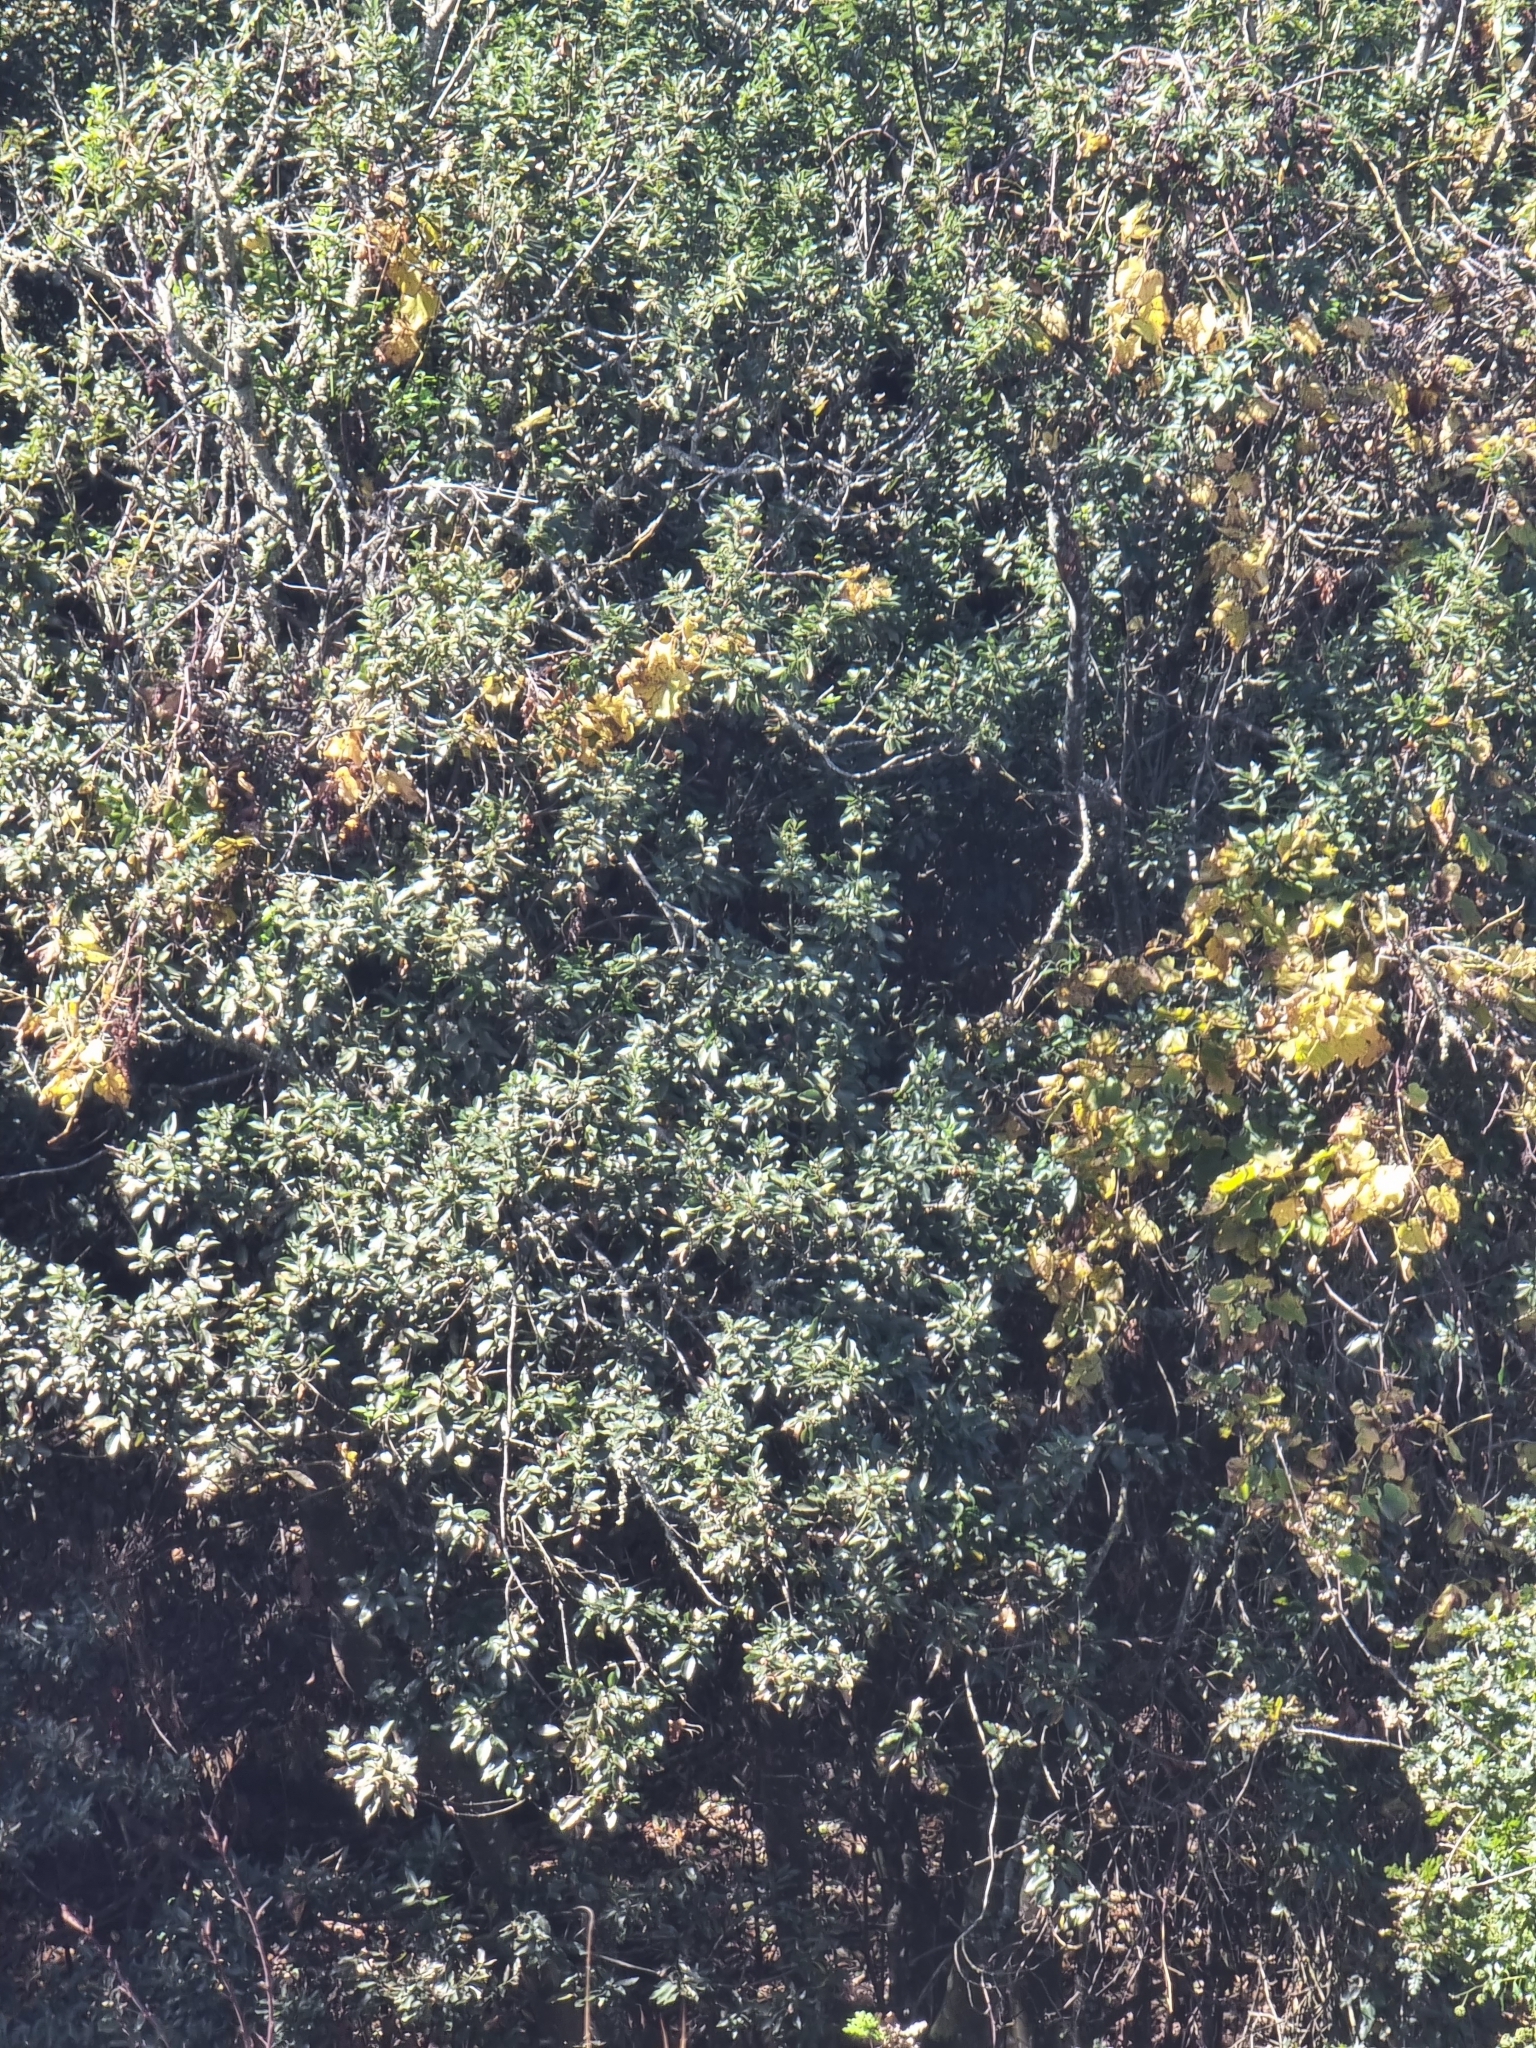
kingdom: Plantae
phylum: Tracheophyta
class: Magnoliopsida
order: Laurales
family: Lauraceae
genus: Laurus
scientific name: Laurus novocanariensis
